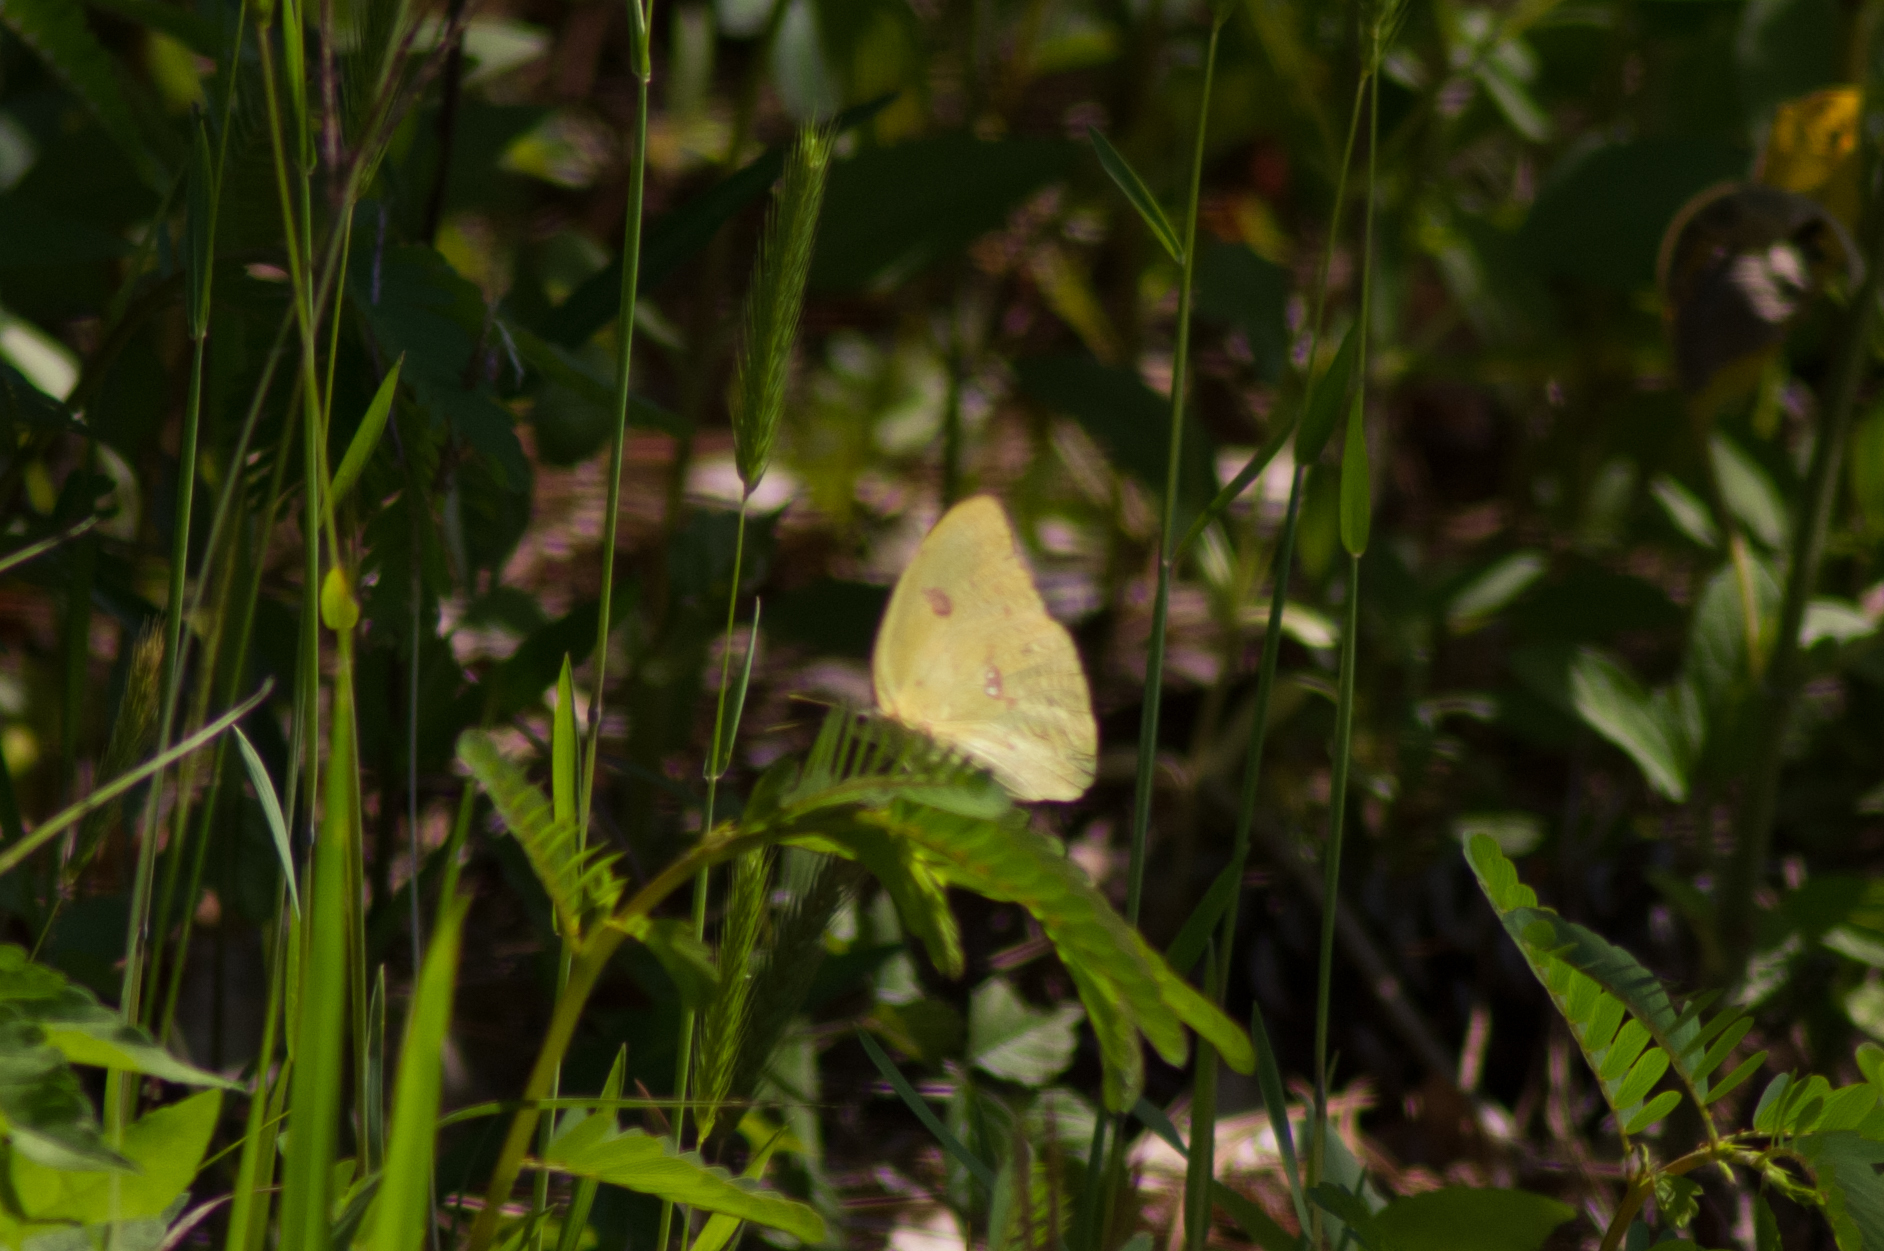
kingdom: Animalia
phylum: Arthropoda
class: Insecta
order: Lepidoptera
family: Pieridae
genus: Phoebis
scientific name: Phoebis sennae
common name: Cloudless sulphur
